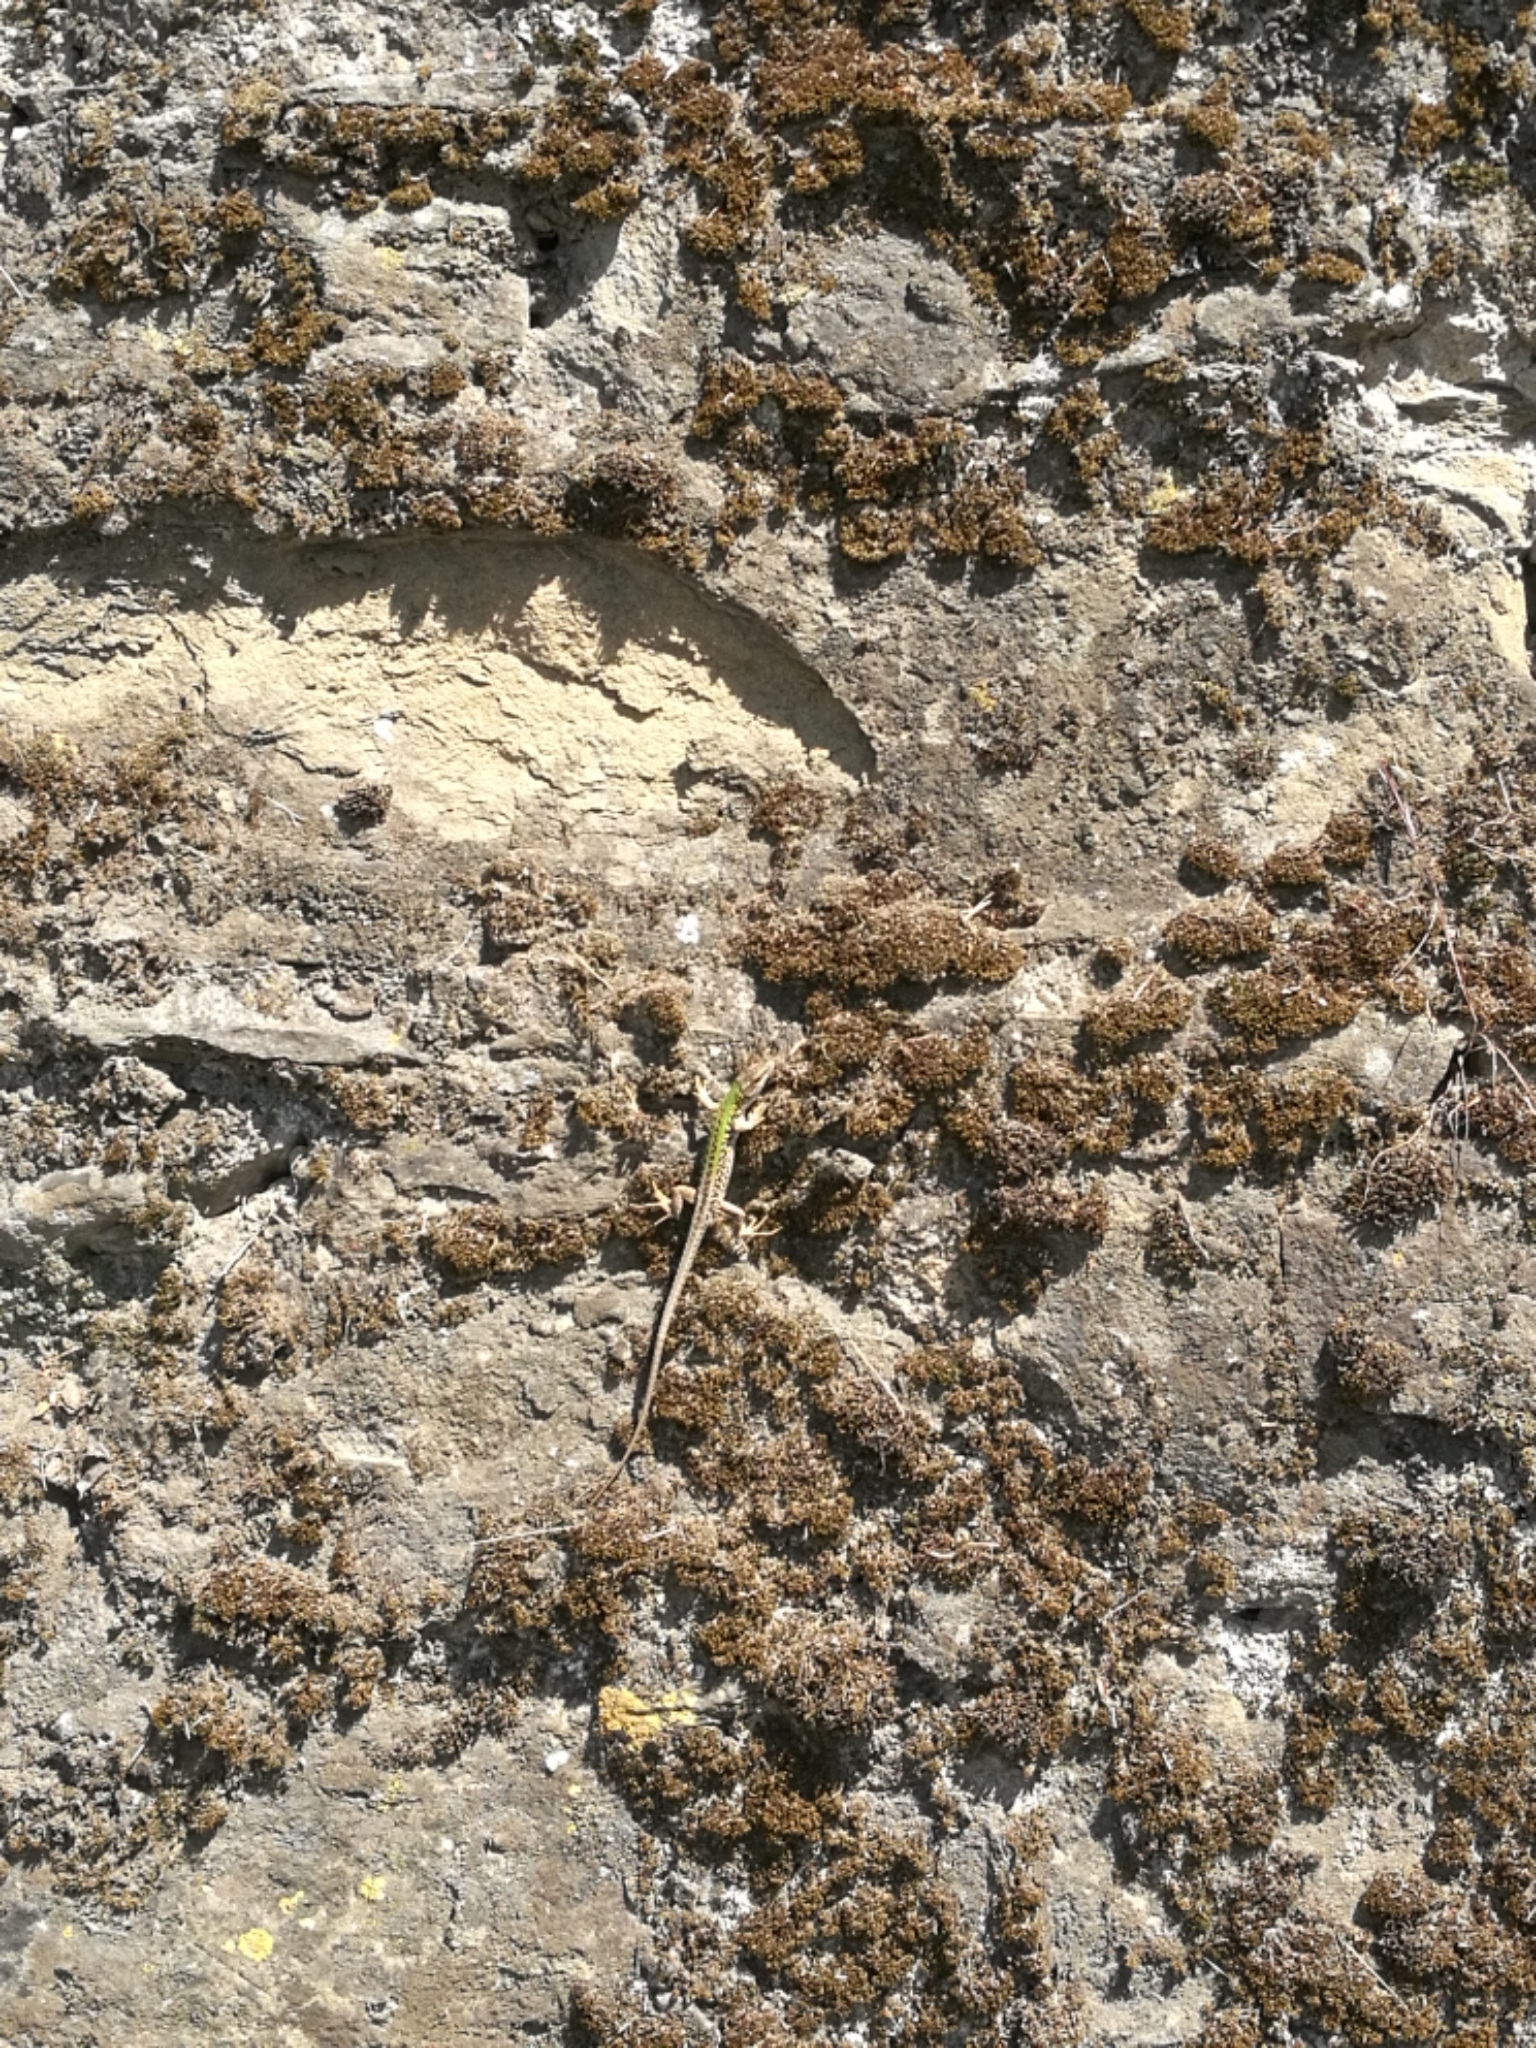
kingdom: Animalia
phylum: Chordata
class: Squamata
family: Lacertidae
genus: Podarcis
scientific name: Podarcis siculus
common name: Italian wall lizard
